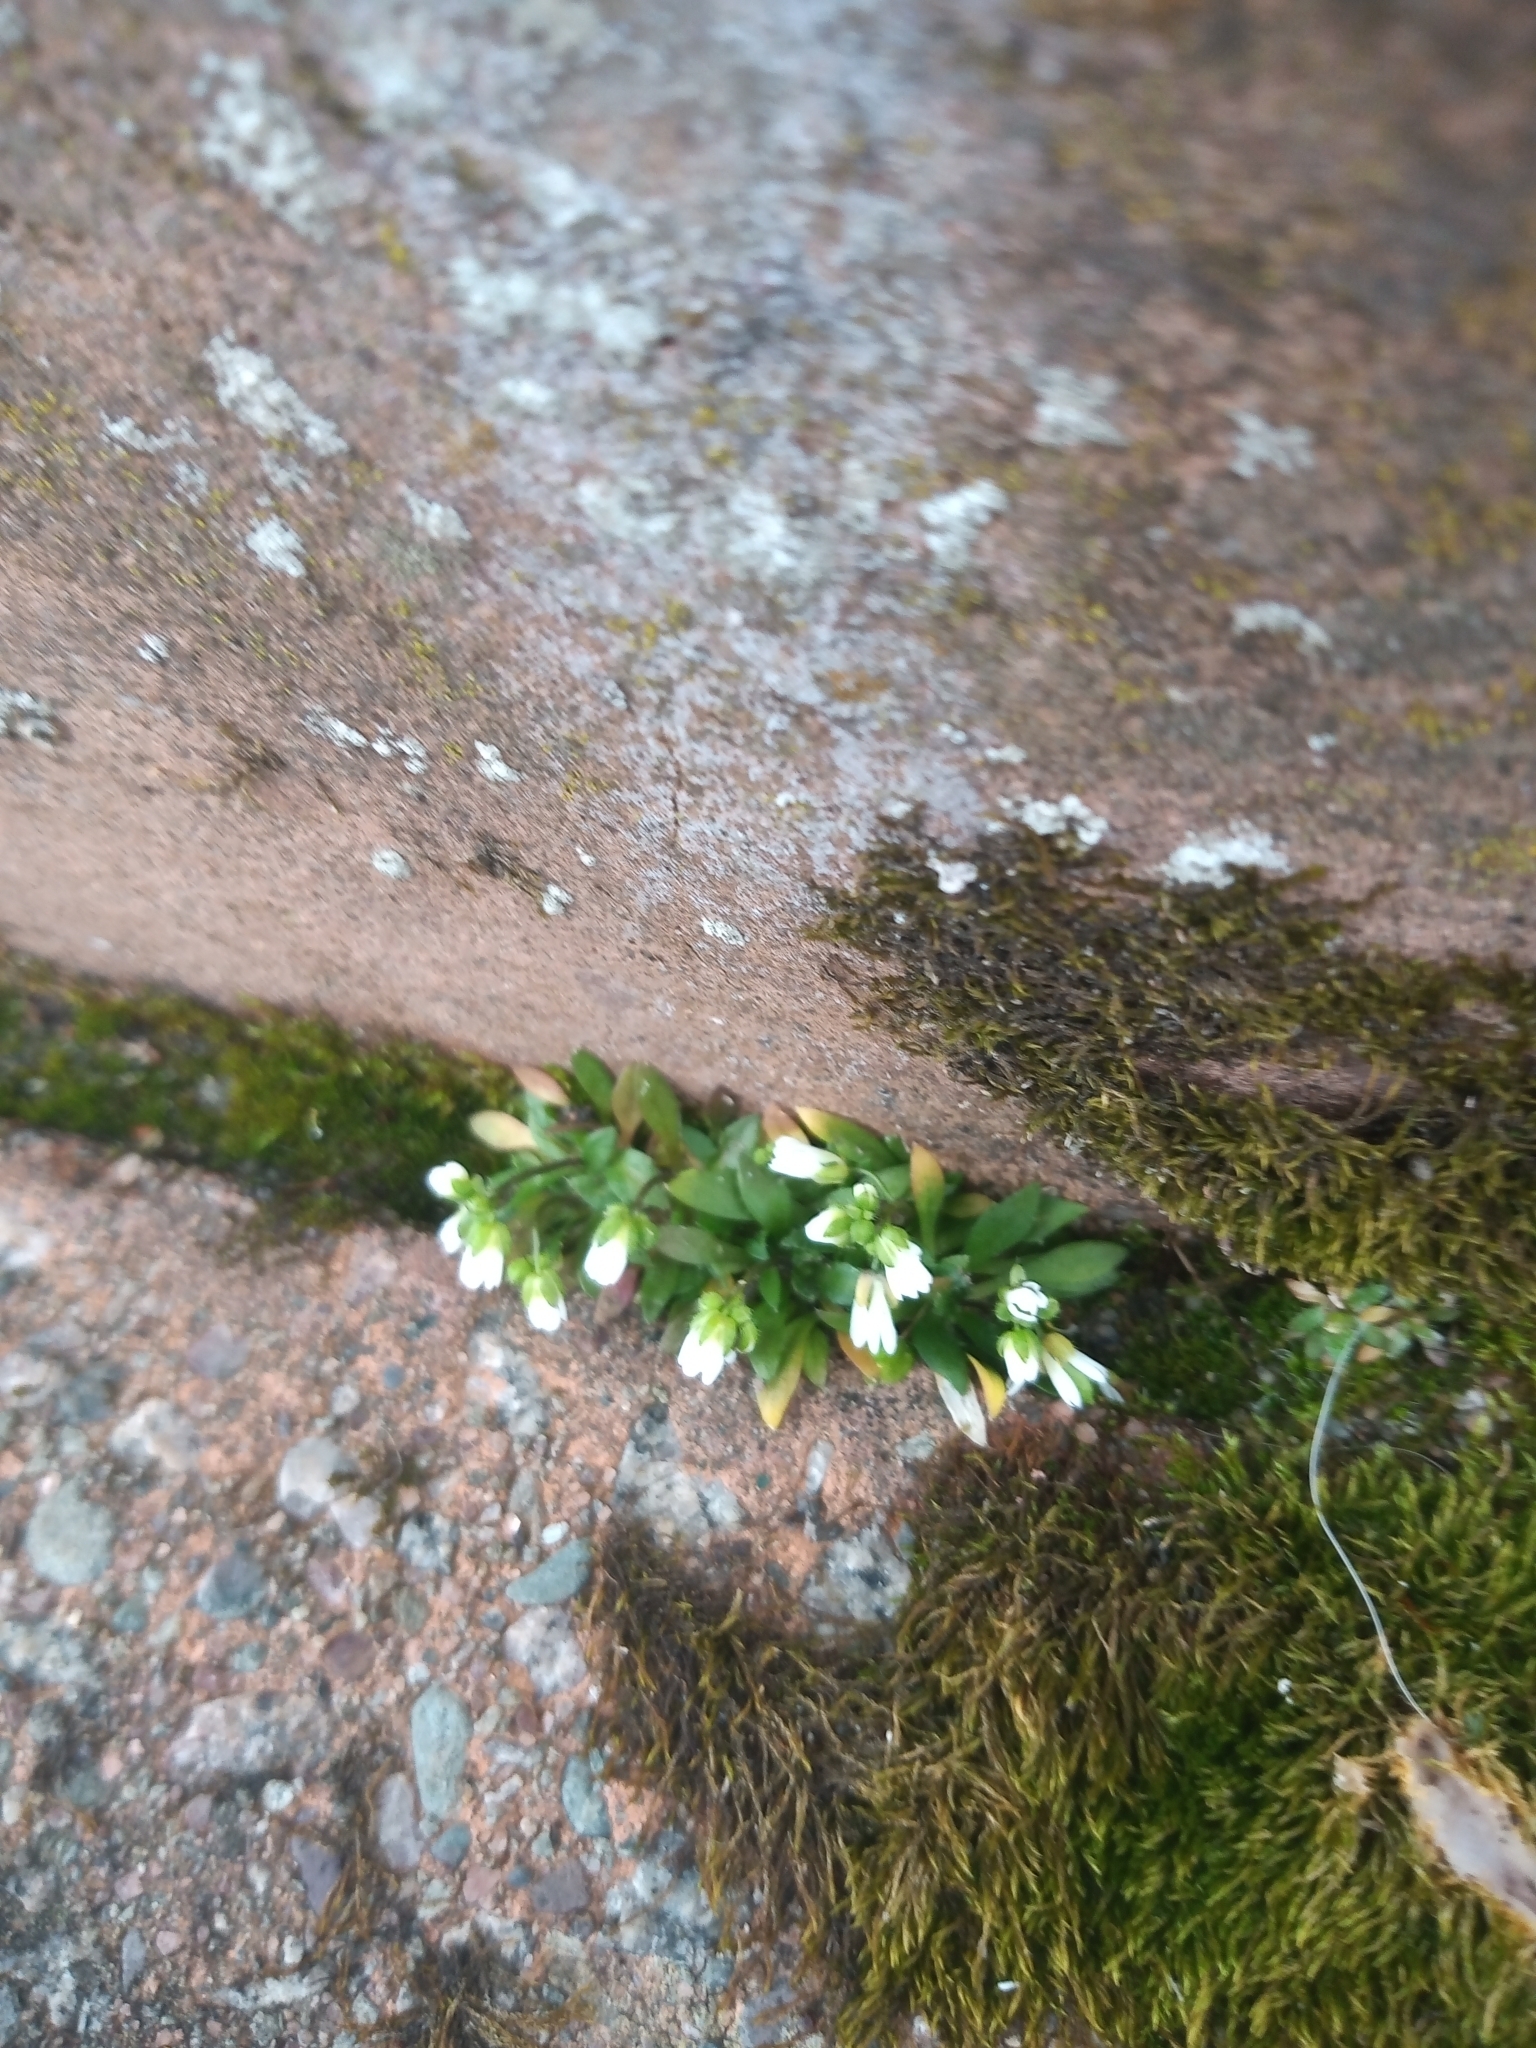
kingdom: Plantae
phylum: Tracheophyta
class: Magnoliopsida
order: Brassicales
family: Brassicaceae
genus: Draba
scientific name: Draba verna
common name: Spring draba
